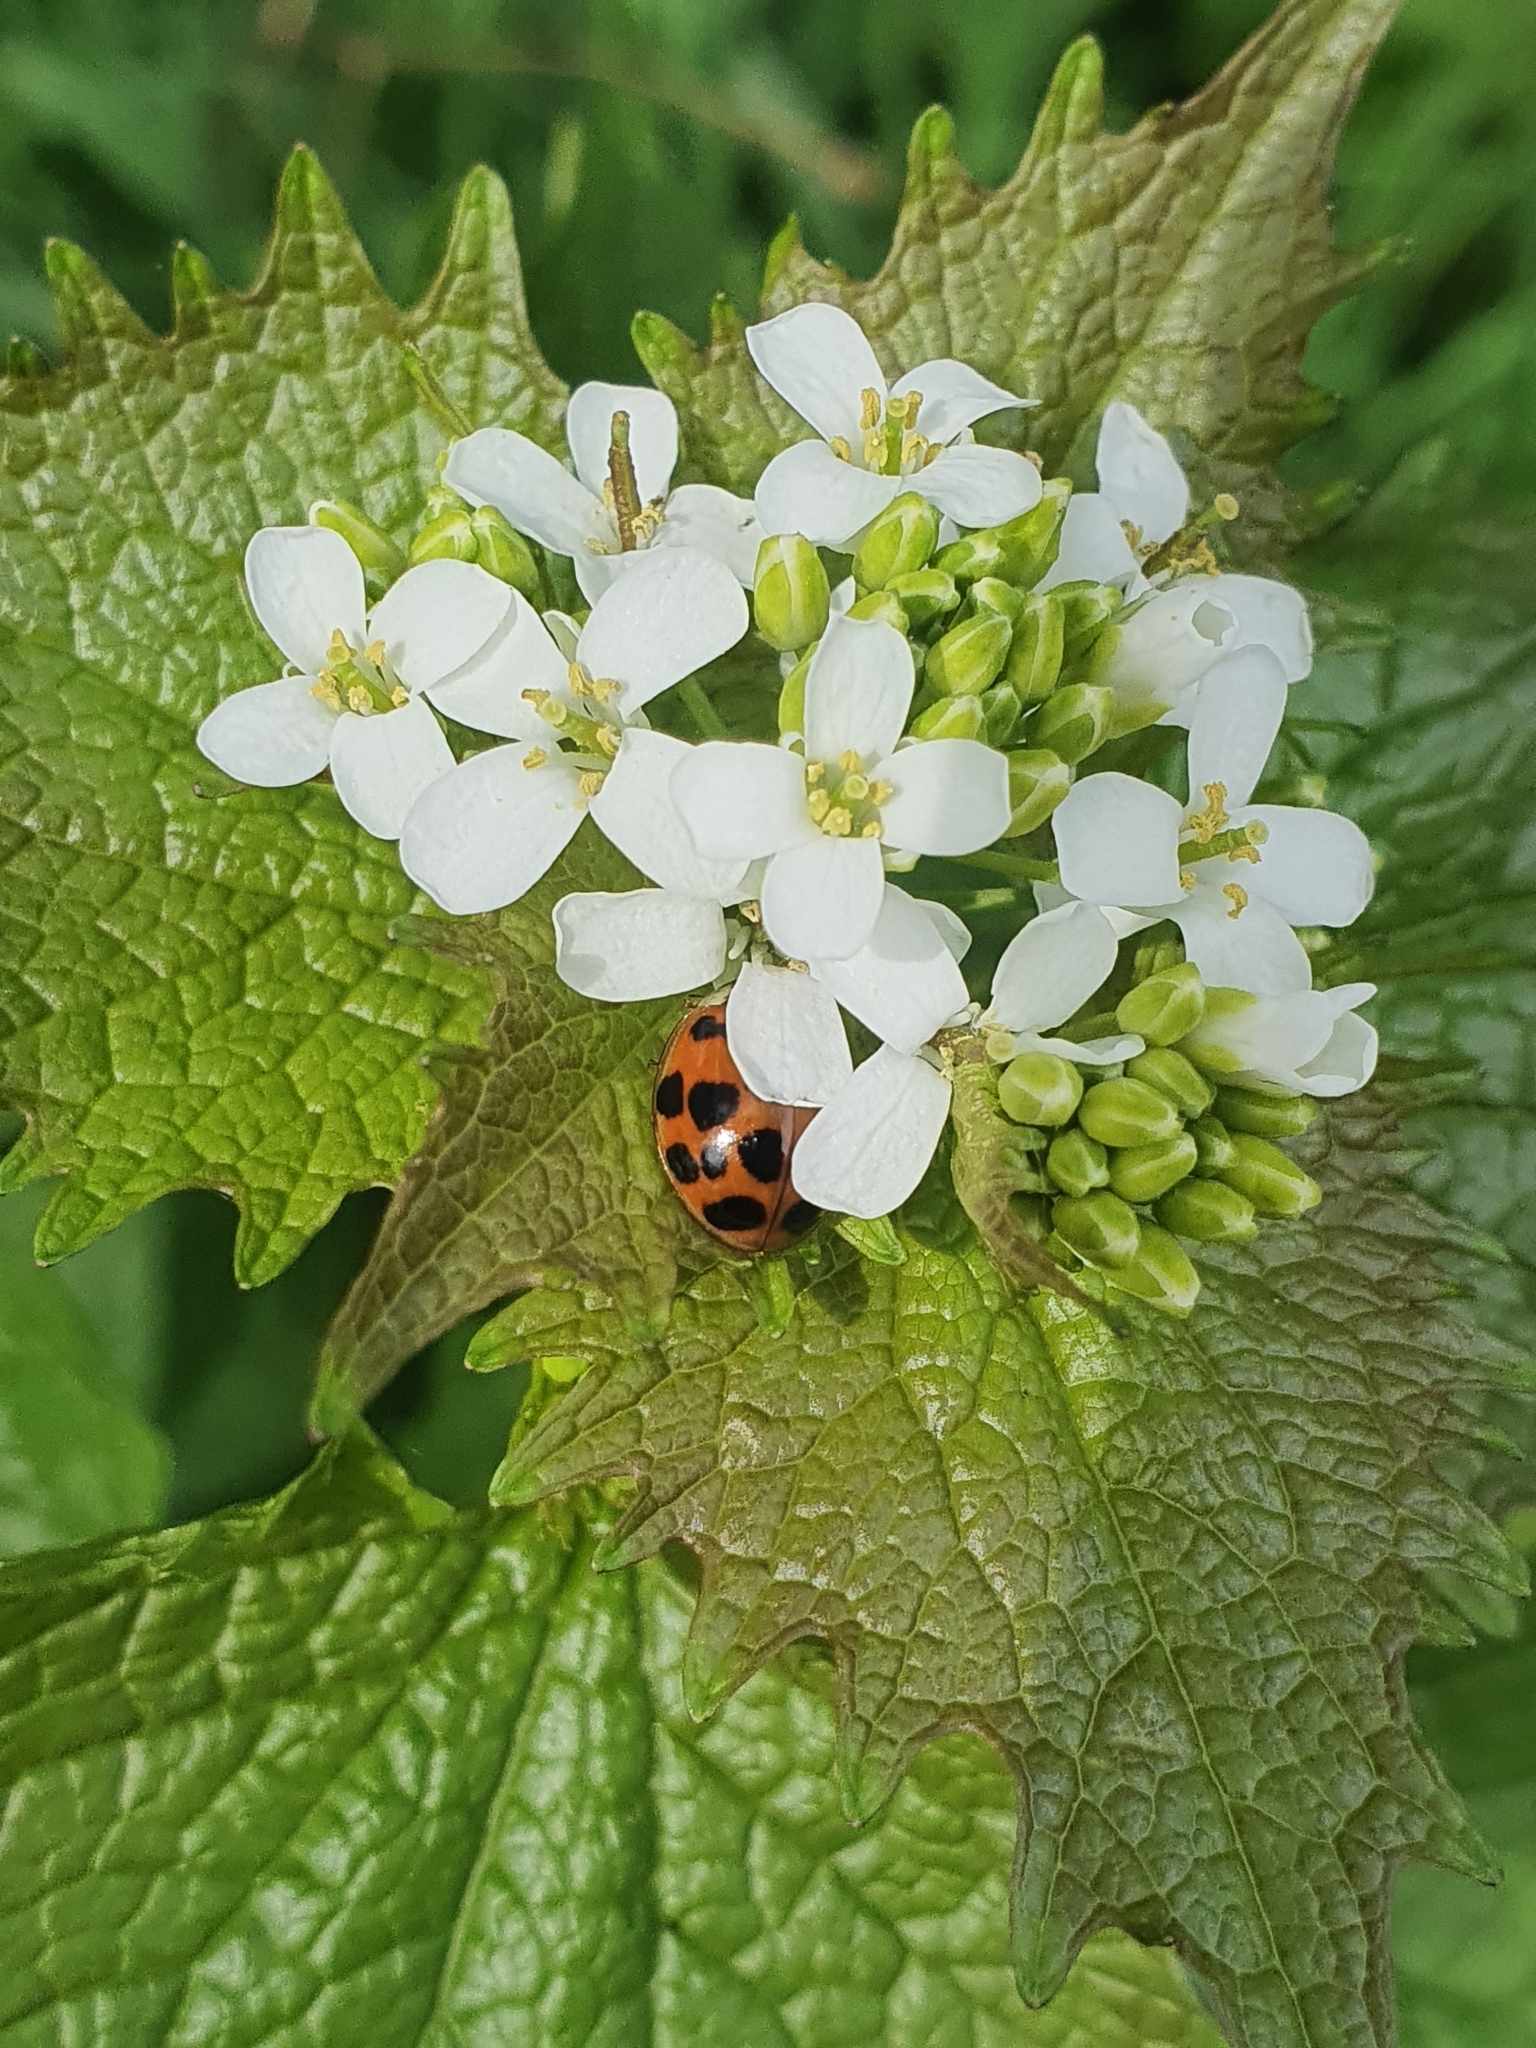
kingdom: Plantae
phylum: Tracheophyta
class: Magnoliopsida
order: Brassicales
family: Brassicaceae
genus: Alliaria
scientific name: Alliaria petiolata
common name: Garlic mustard
